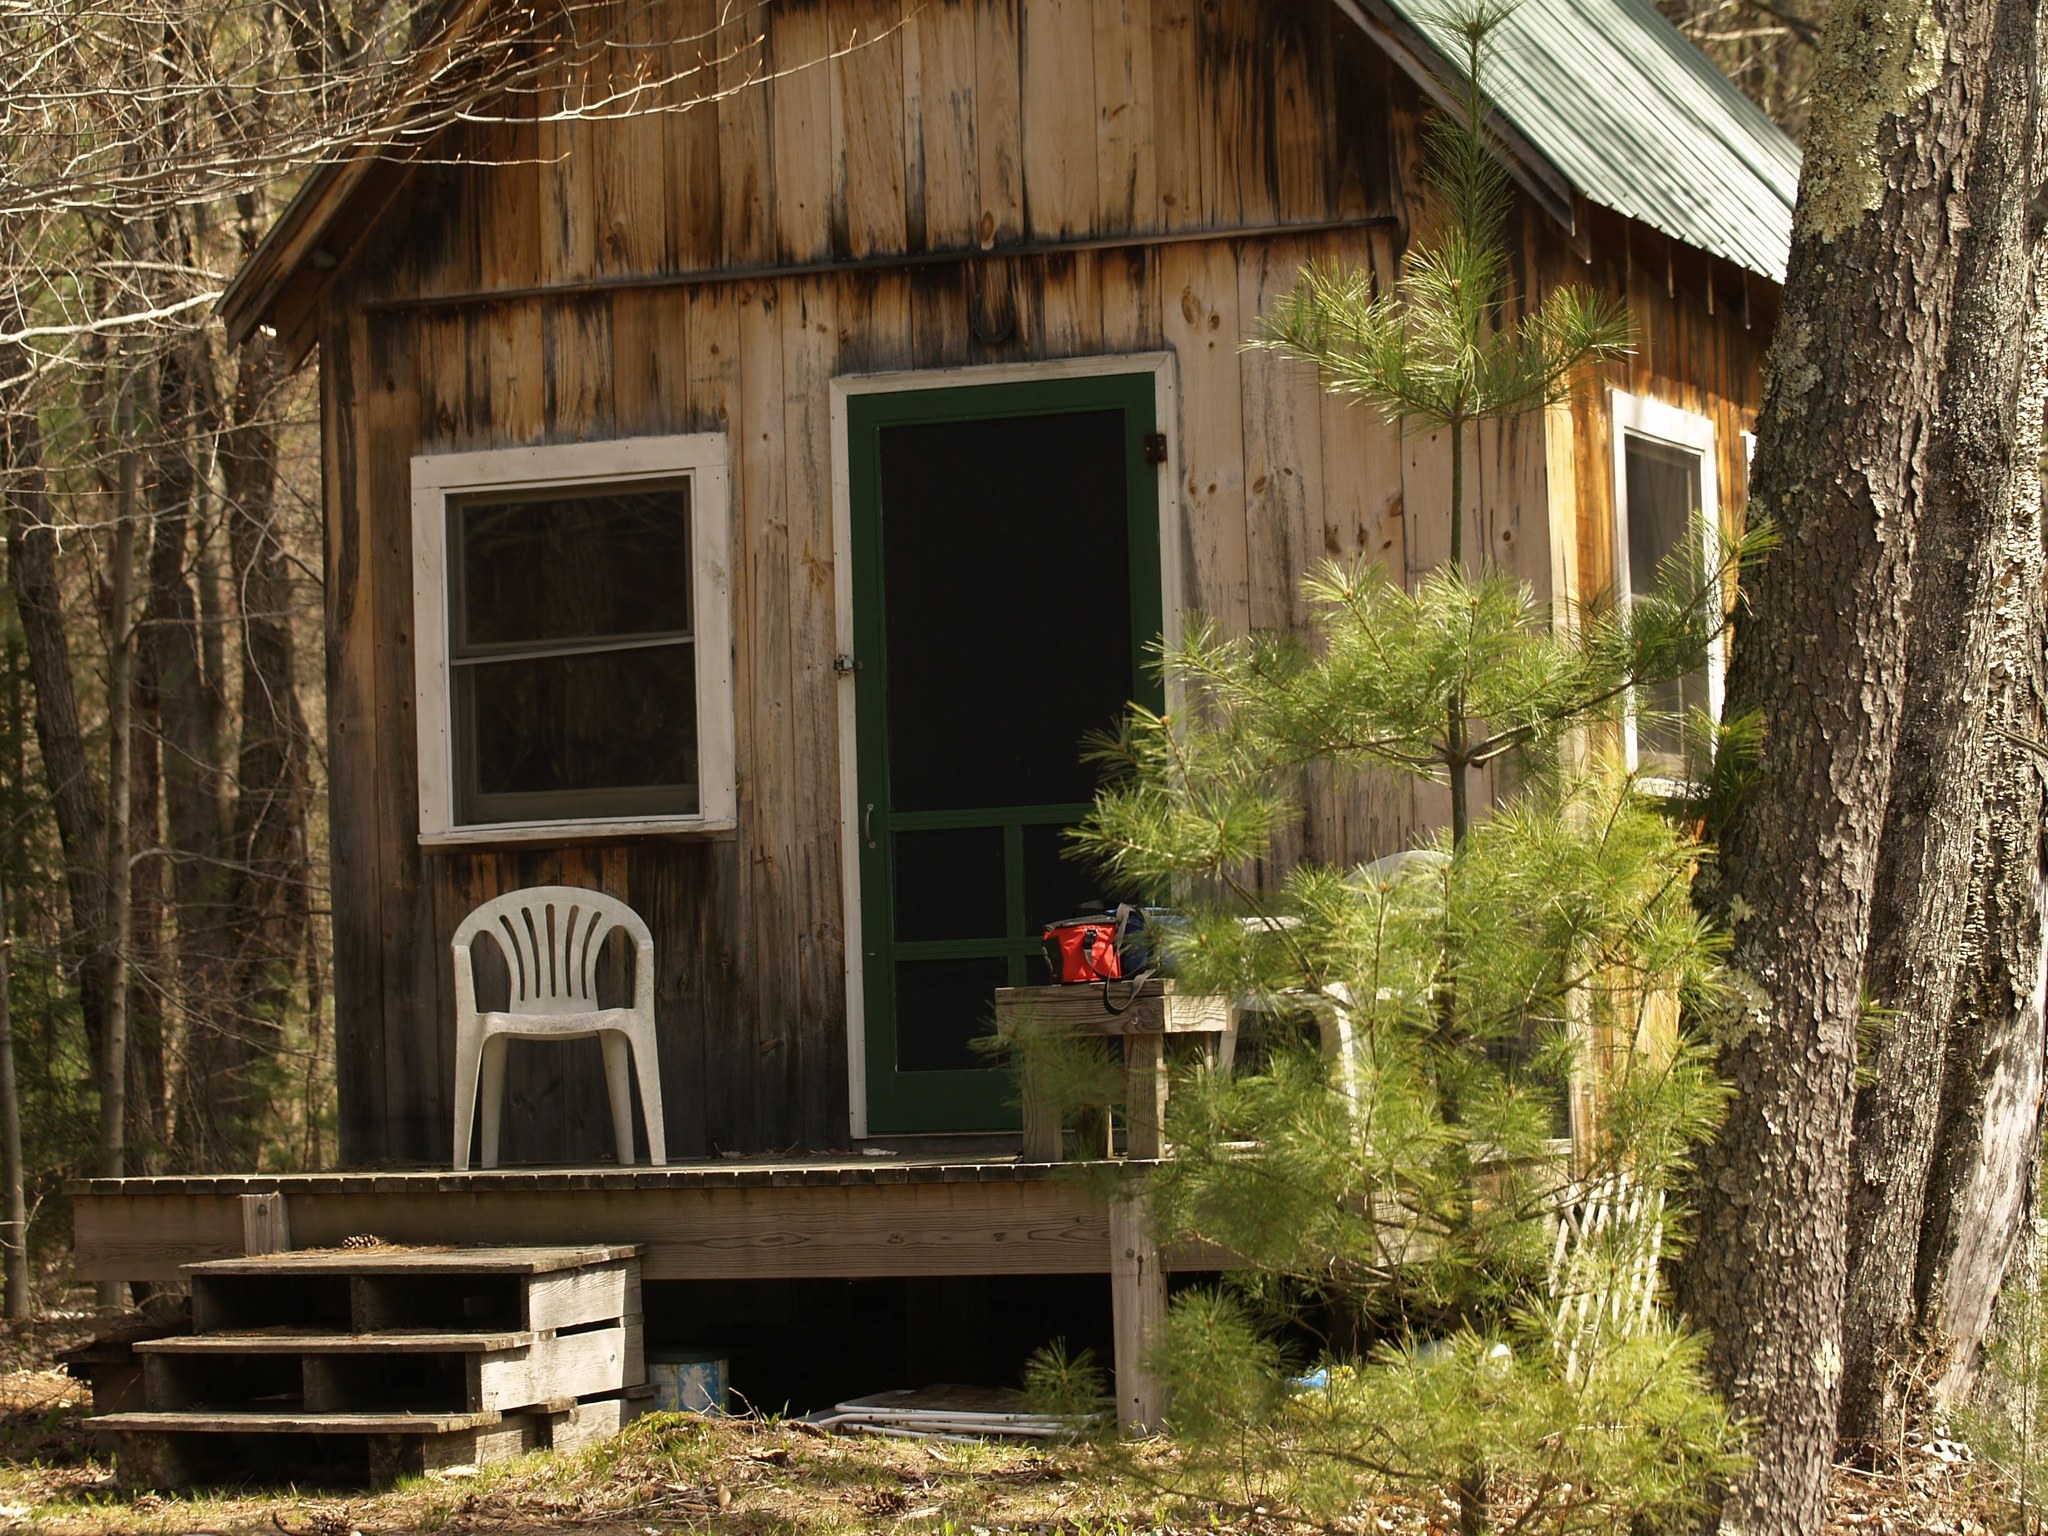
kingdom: Plantae
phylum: Tracheophyta
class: Pinopsida
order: Pinales
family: Pinaceae
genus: Pinus
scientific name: Pinus strobus
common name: Weymouth pine
